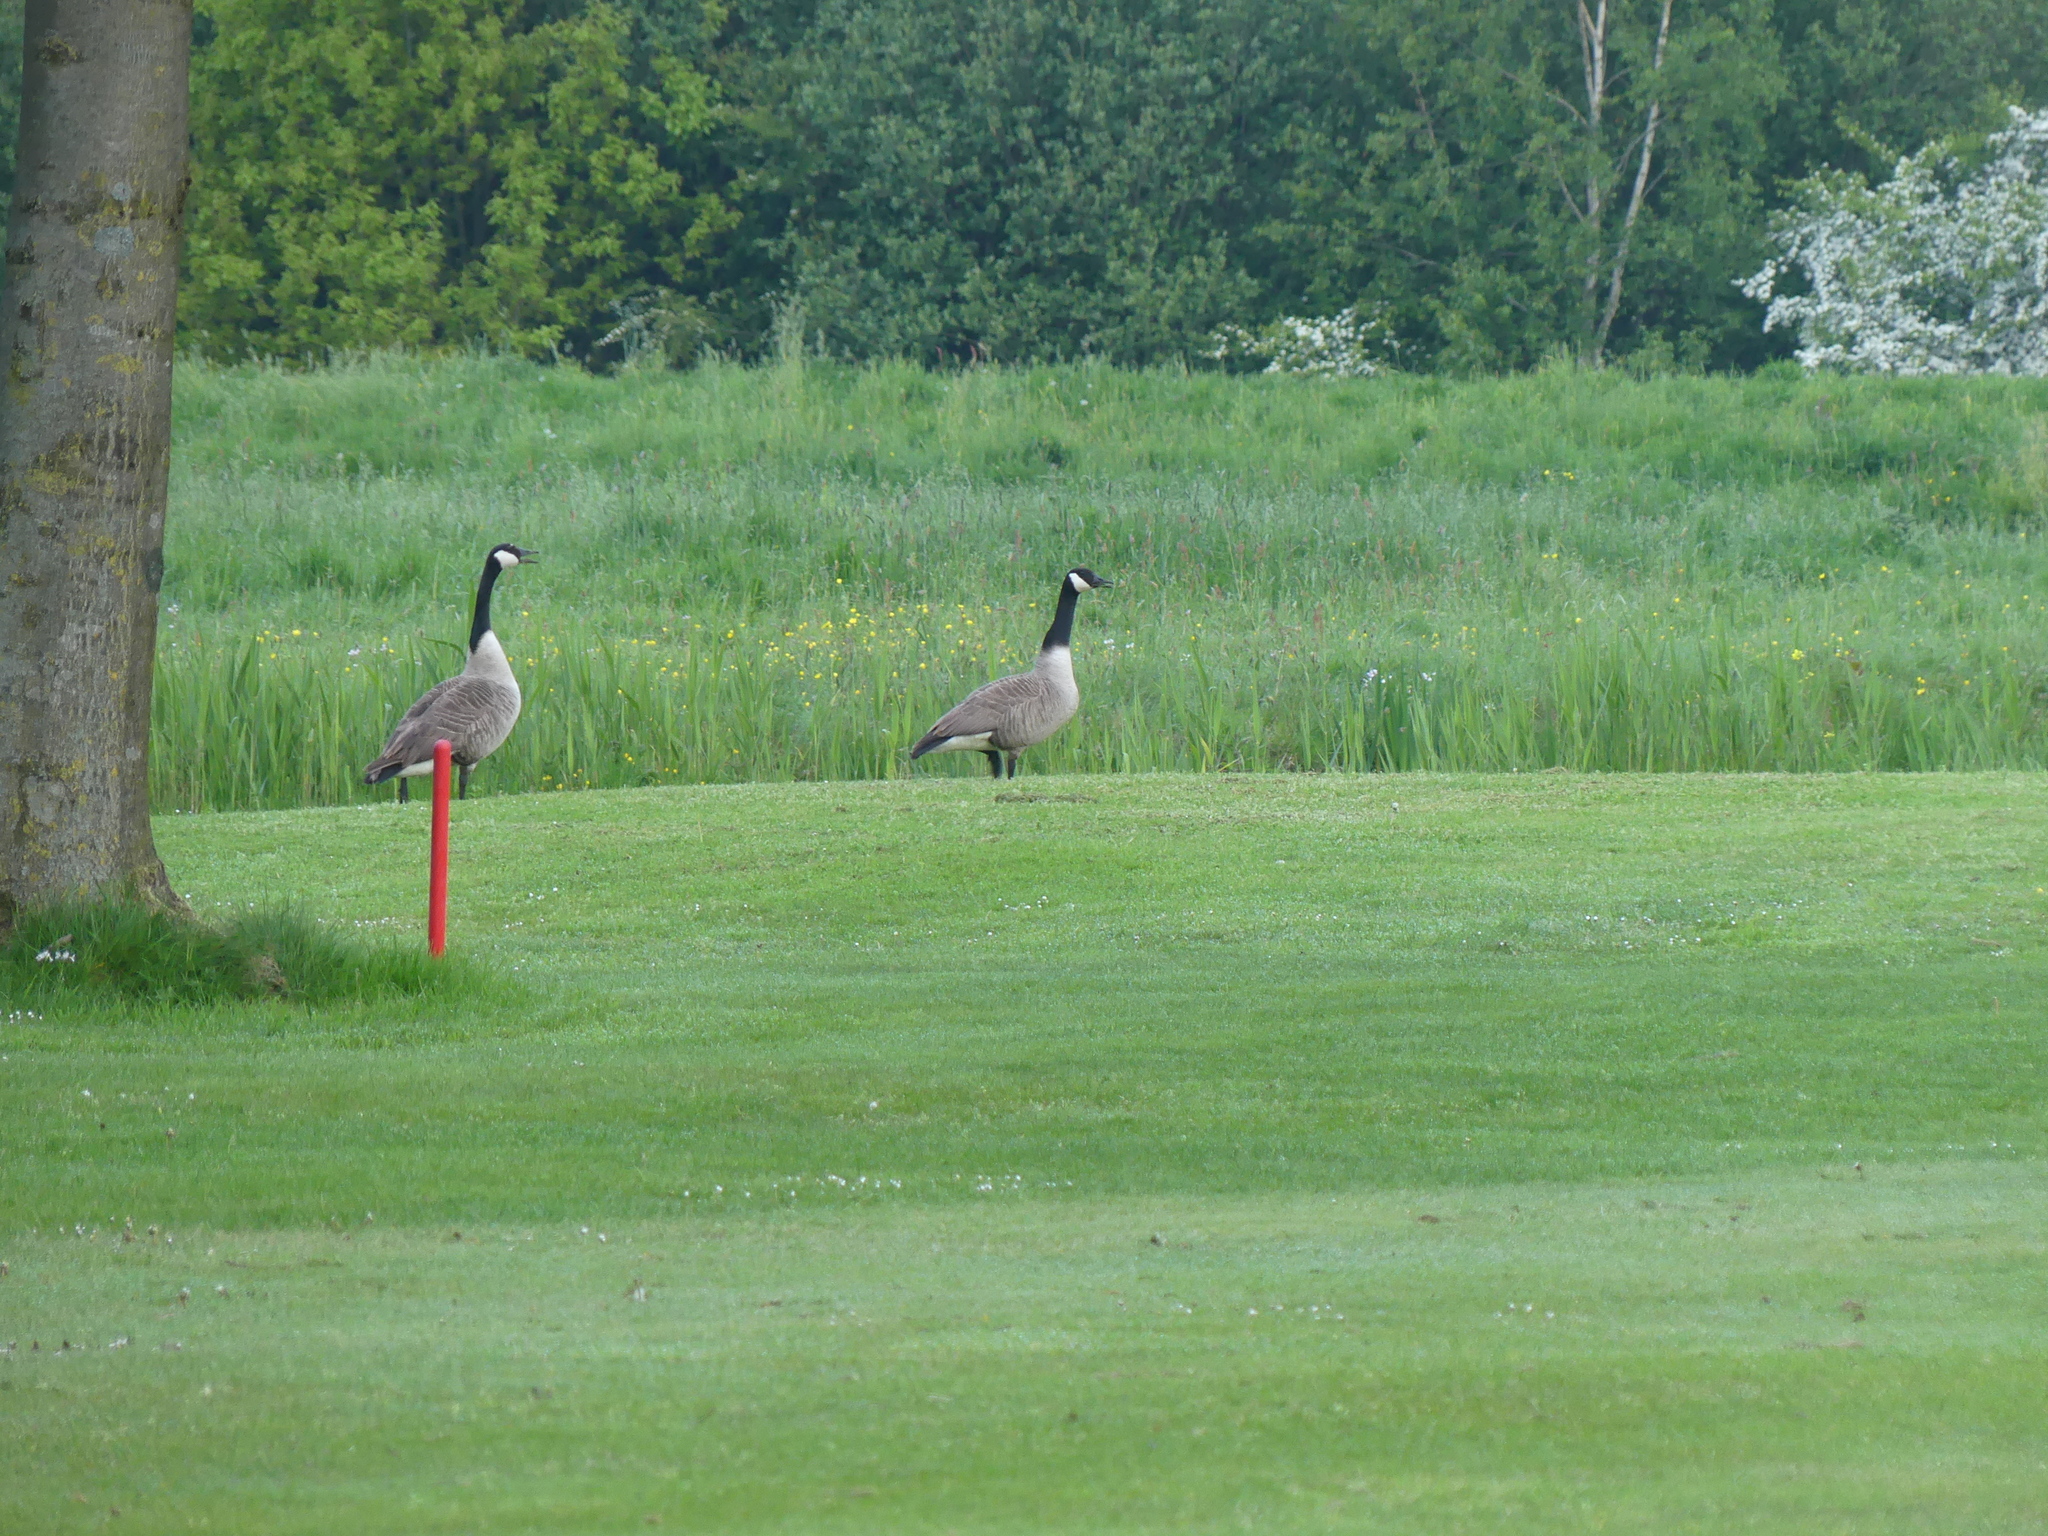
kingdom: Animalia
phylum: Chordata
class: Aves
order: Anseriformes
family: Anatidae
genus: Branta
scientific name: Branta canadensis
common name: Canada goose
